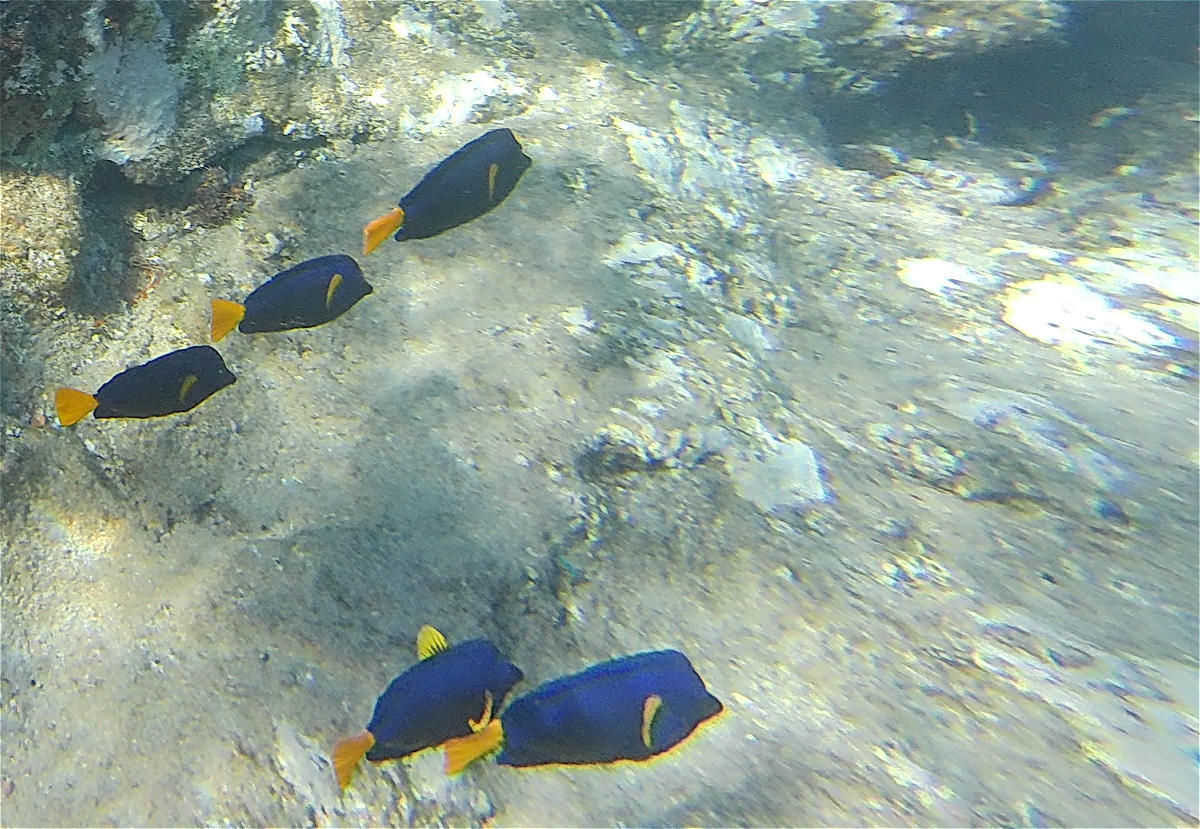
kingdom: Animalia
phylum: Chordata
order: Perciformes
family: Acanthuridae
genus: Zebrasoma
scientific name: Zebrasoma xanthurum
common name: Purple tang
